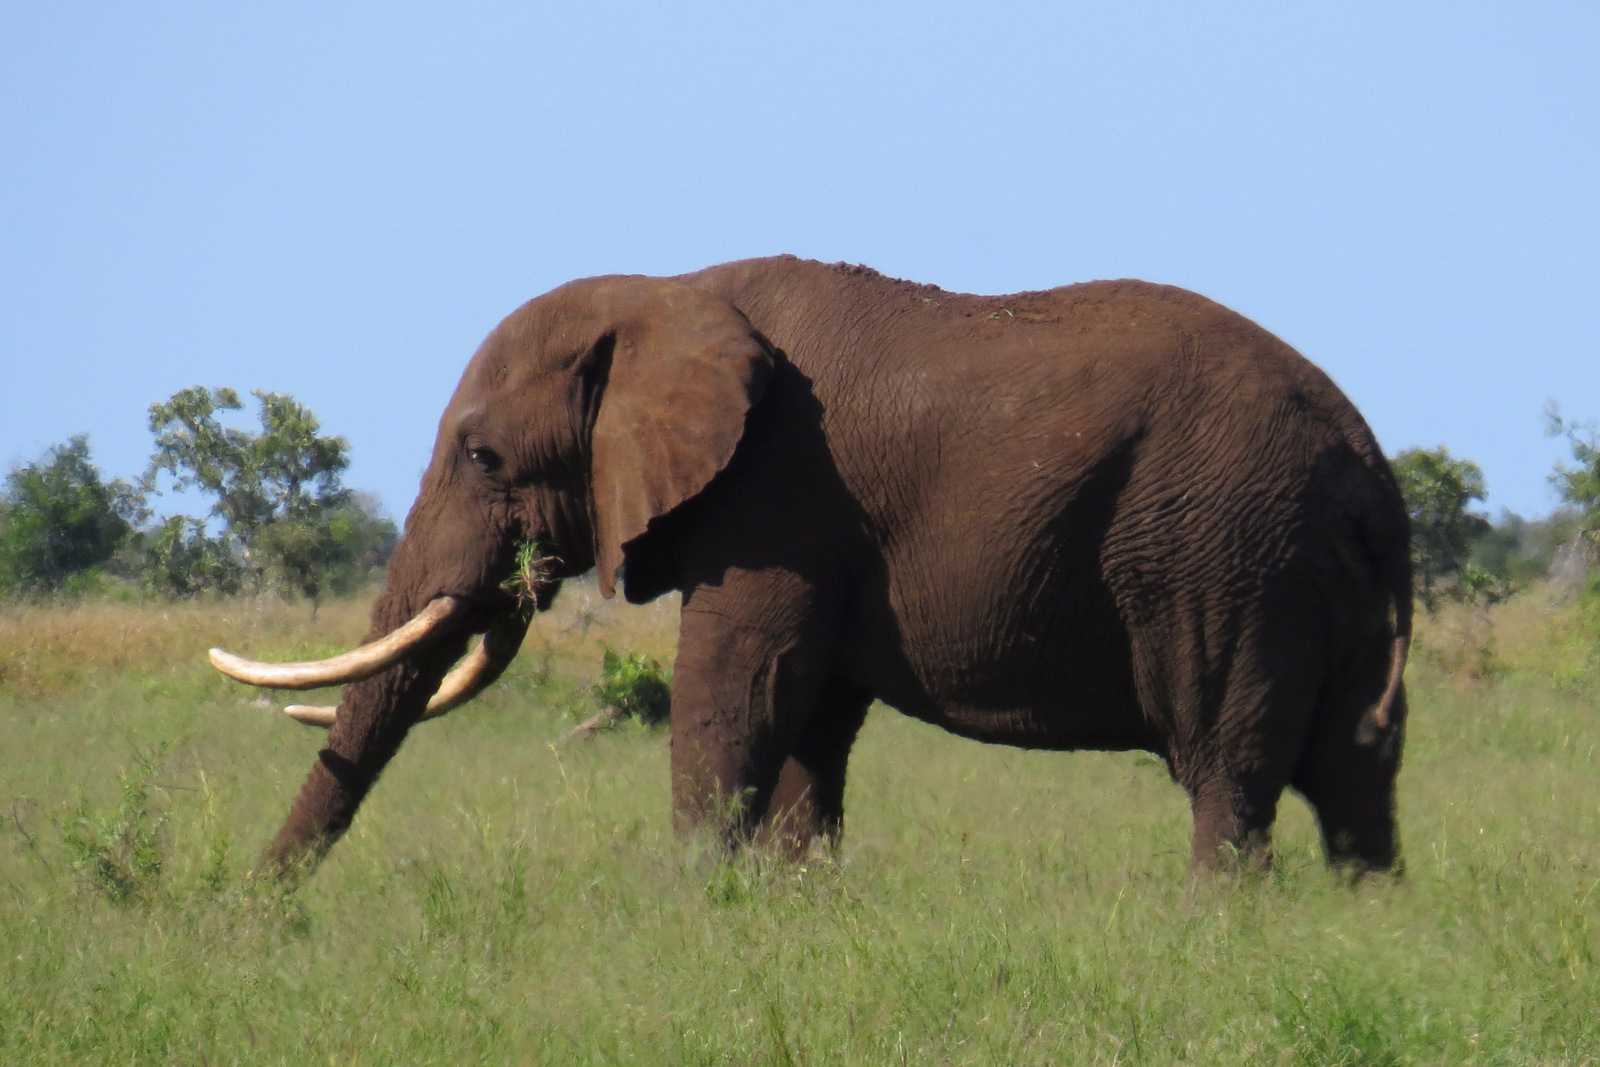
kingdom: Animalia
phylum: Chordata
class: Mammalia
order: Proboscidea
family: Elephantidae
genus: Loxodonta
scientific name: Loxodonta africana
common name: African elephant
